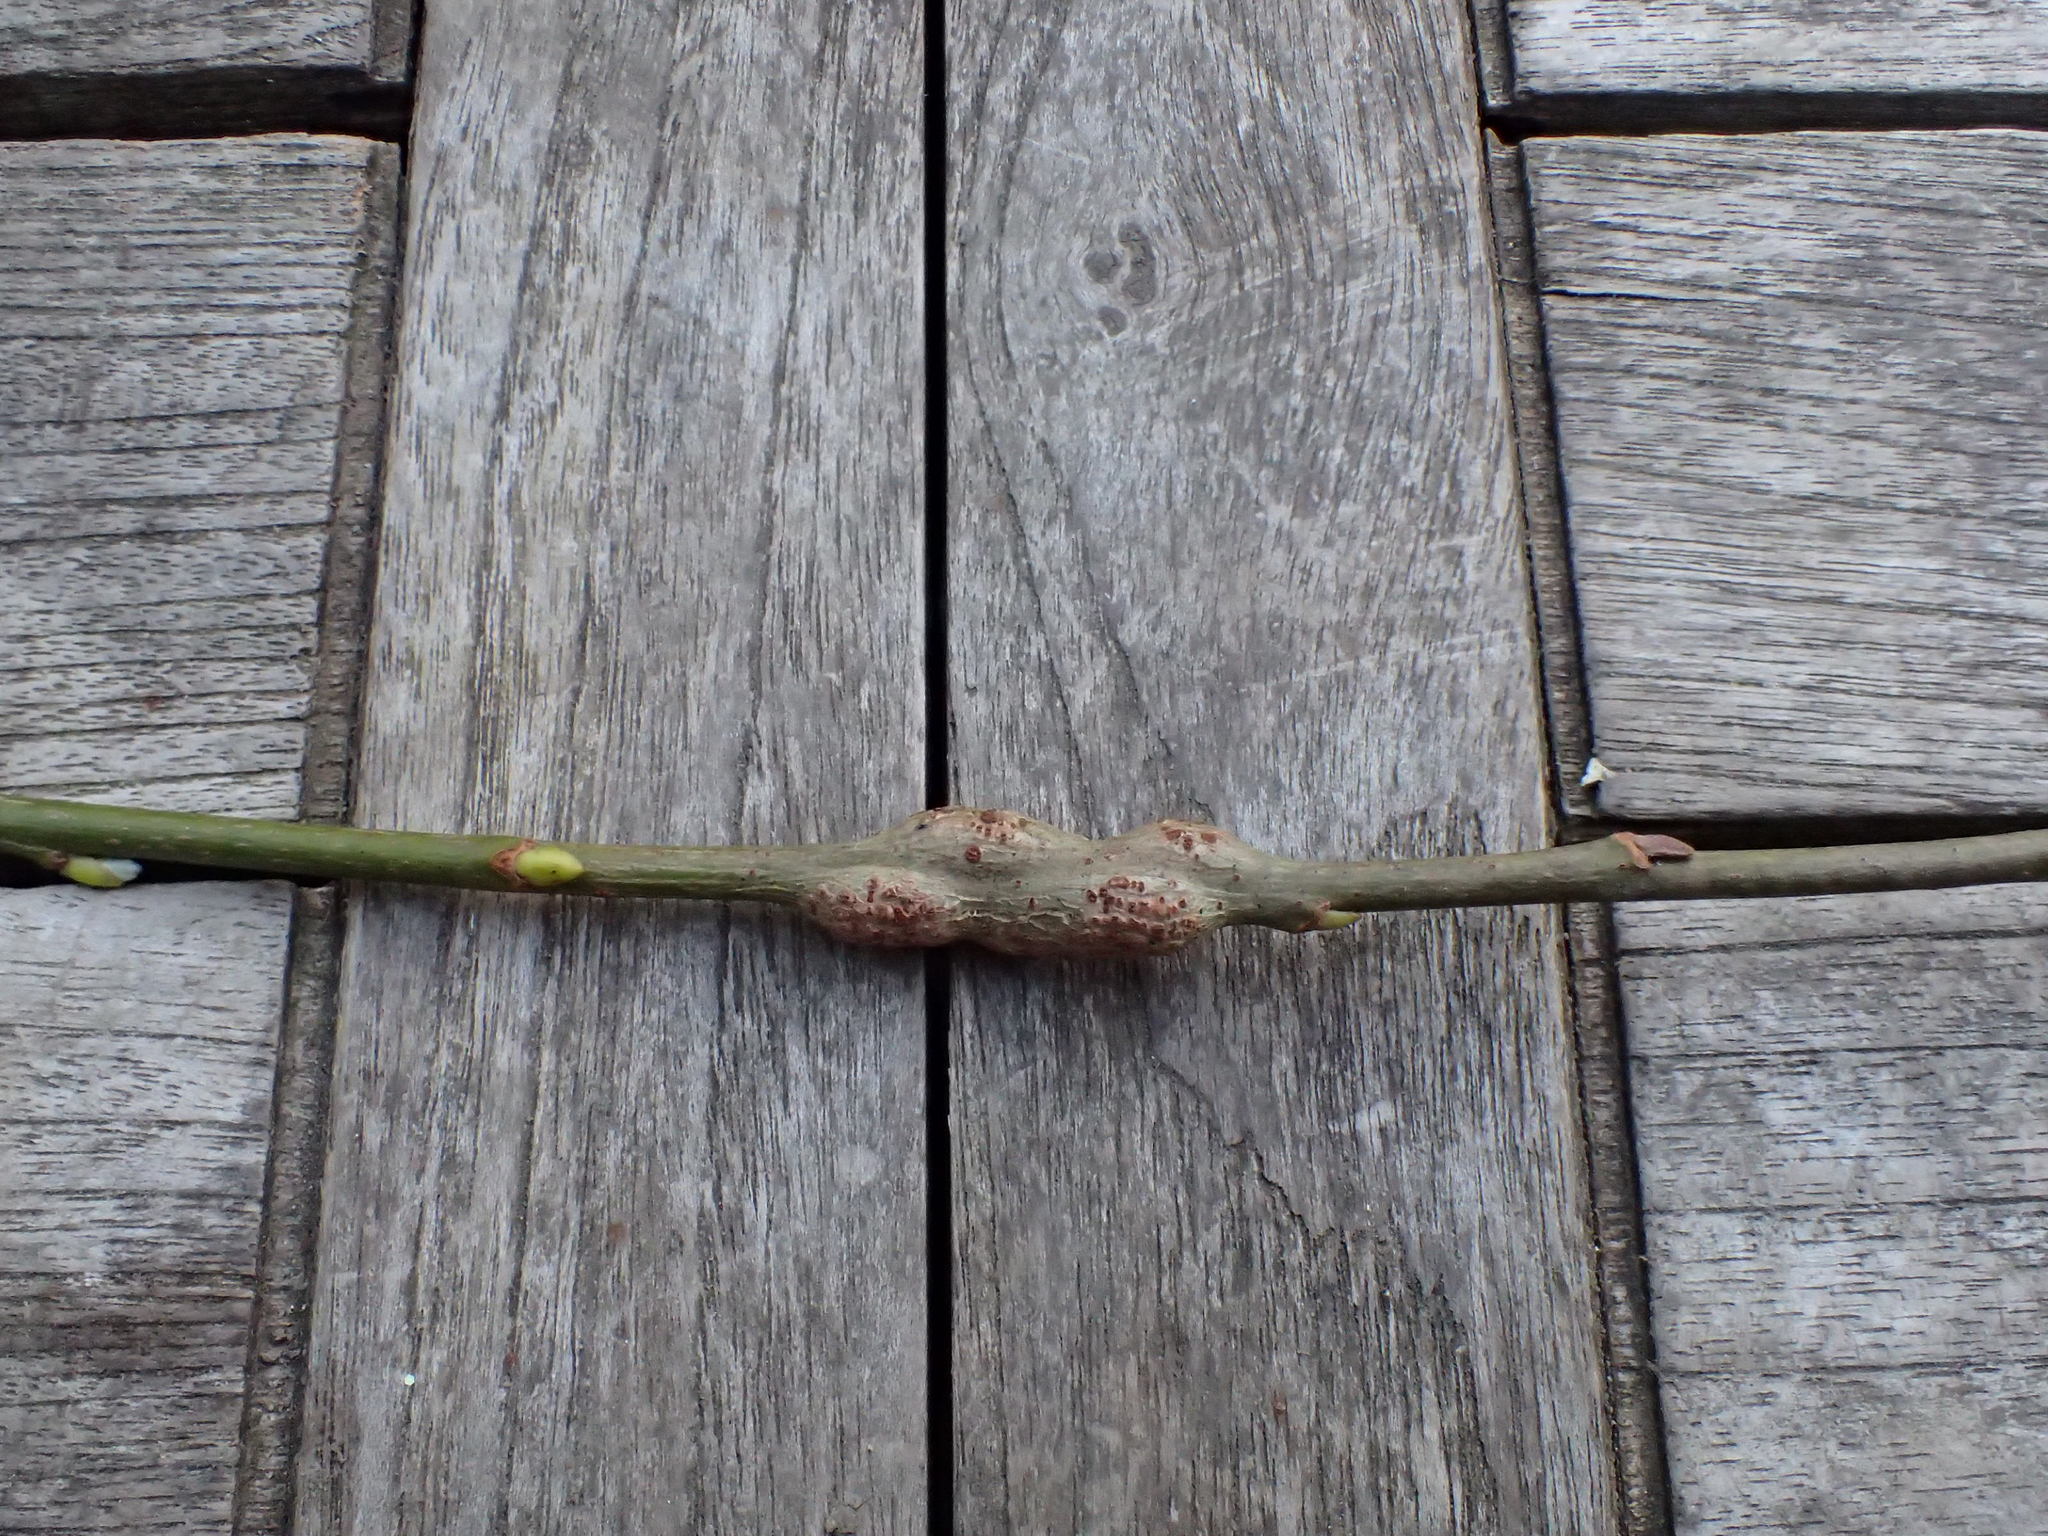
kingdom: Animalia
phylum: Arthropoda
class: Insecta
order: Diptera
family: Agromyzidae
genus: Euhexomyza
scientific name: Euhexomyza simplicoides
